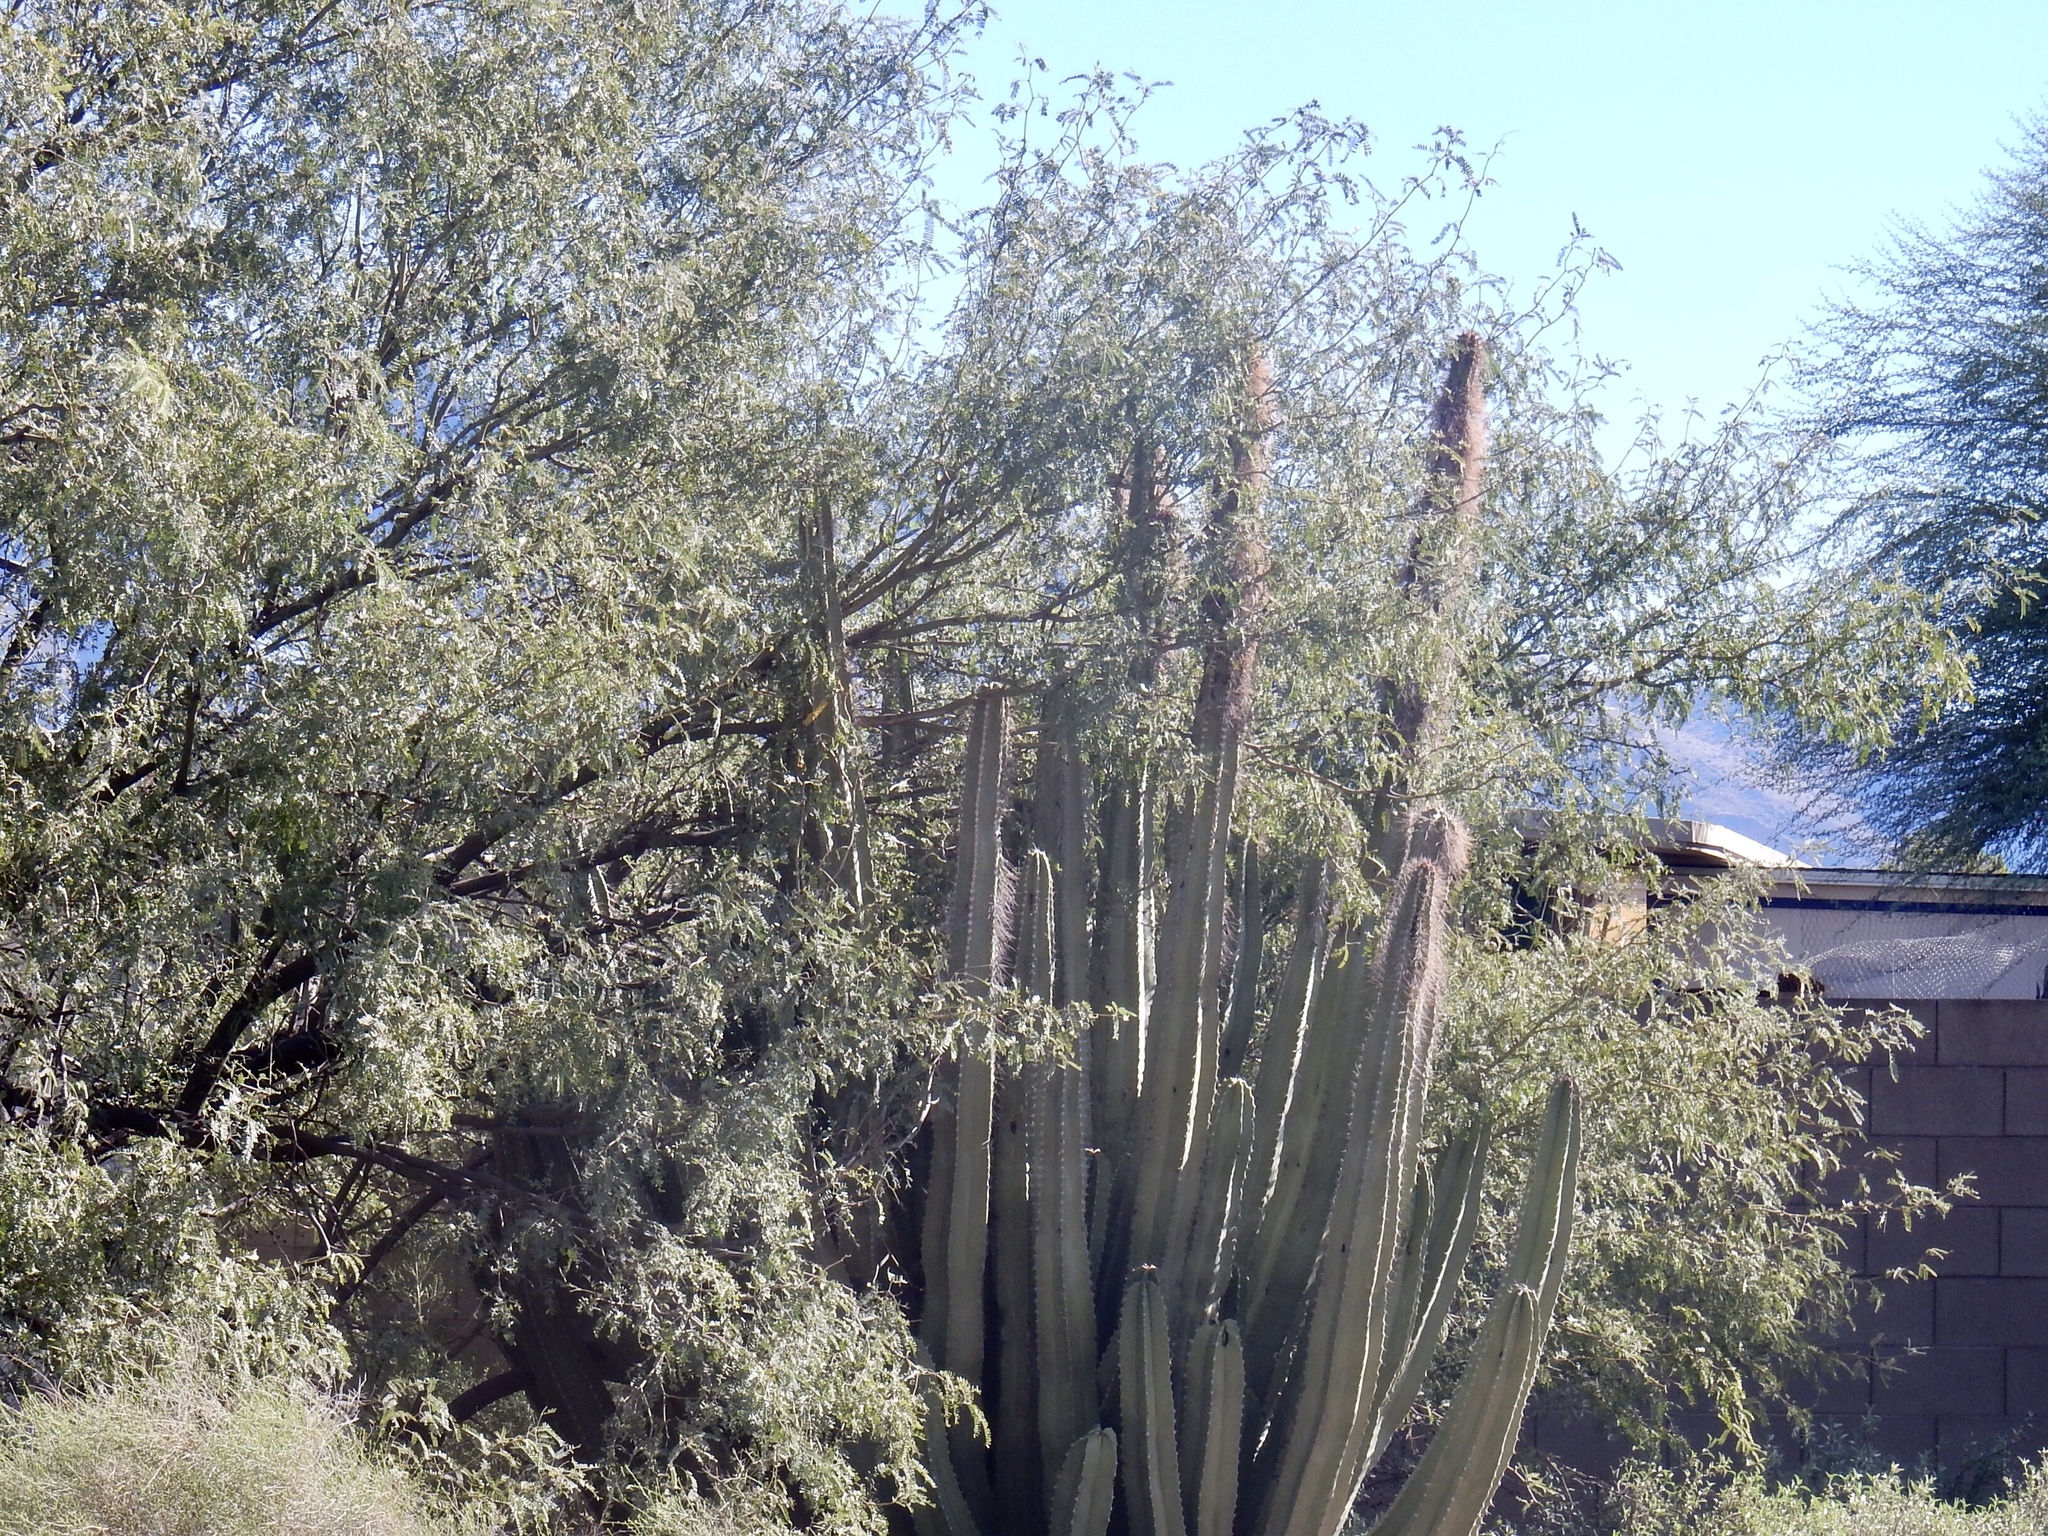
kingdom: Plantae
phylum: Tracheophyta
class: Magnoliopsida
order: Caryophyllales
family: Cactaceae
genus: Pachycereus
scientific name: Pachycereus schottii
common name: Senita cactus
